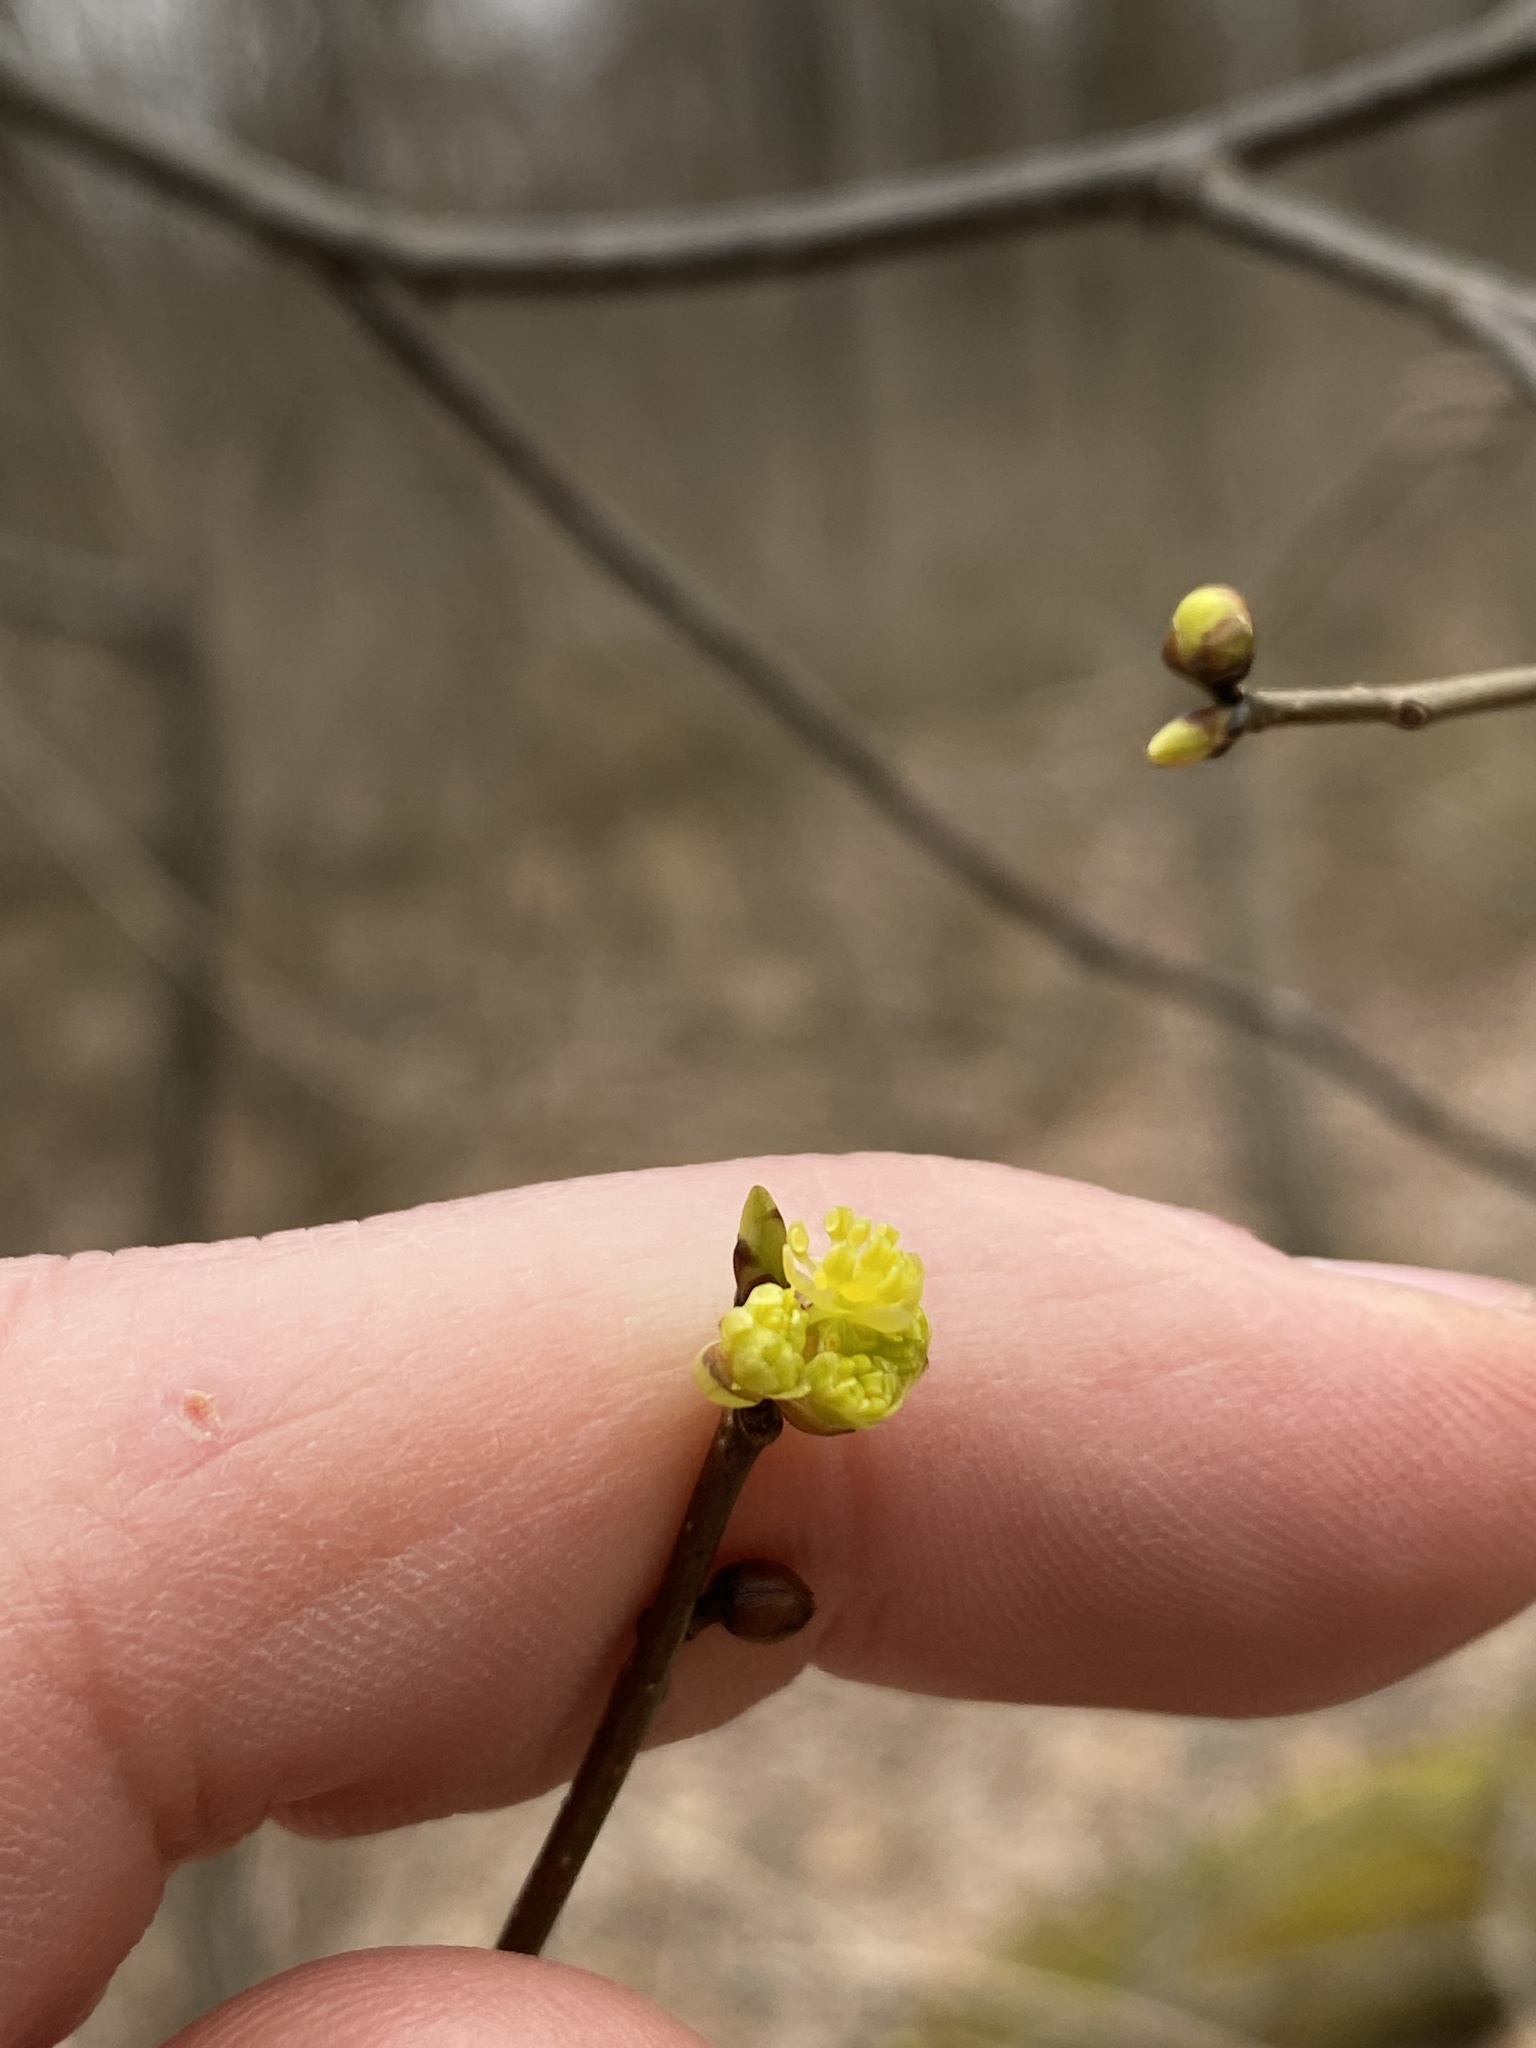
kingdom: Plantae
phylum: Tracheophyta
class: Magnoliopsida
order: Laurales
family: Lauraceae
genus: Lindera
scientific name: Lindera benzoin
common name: Spicebush
